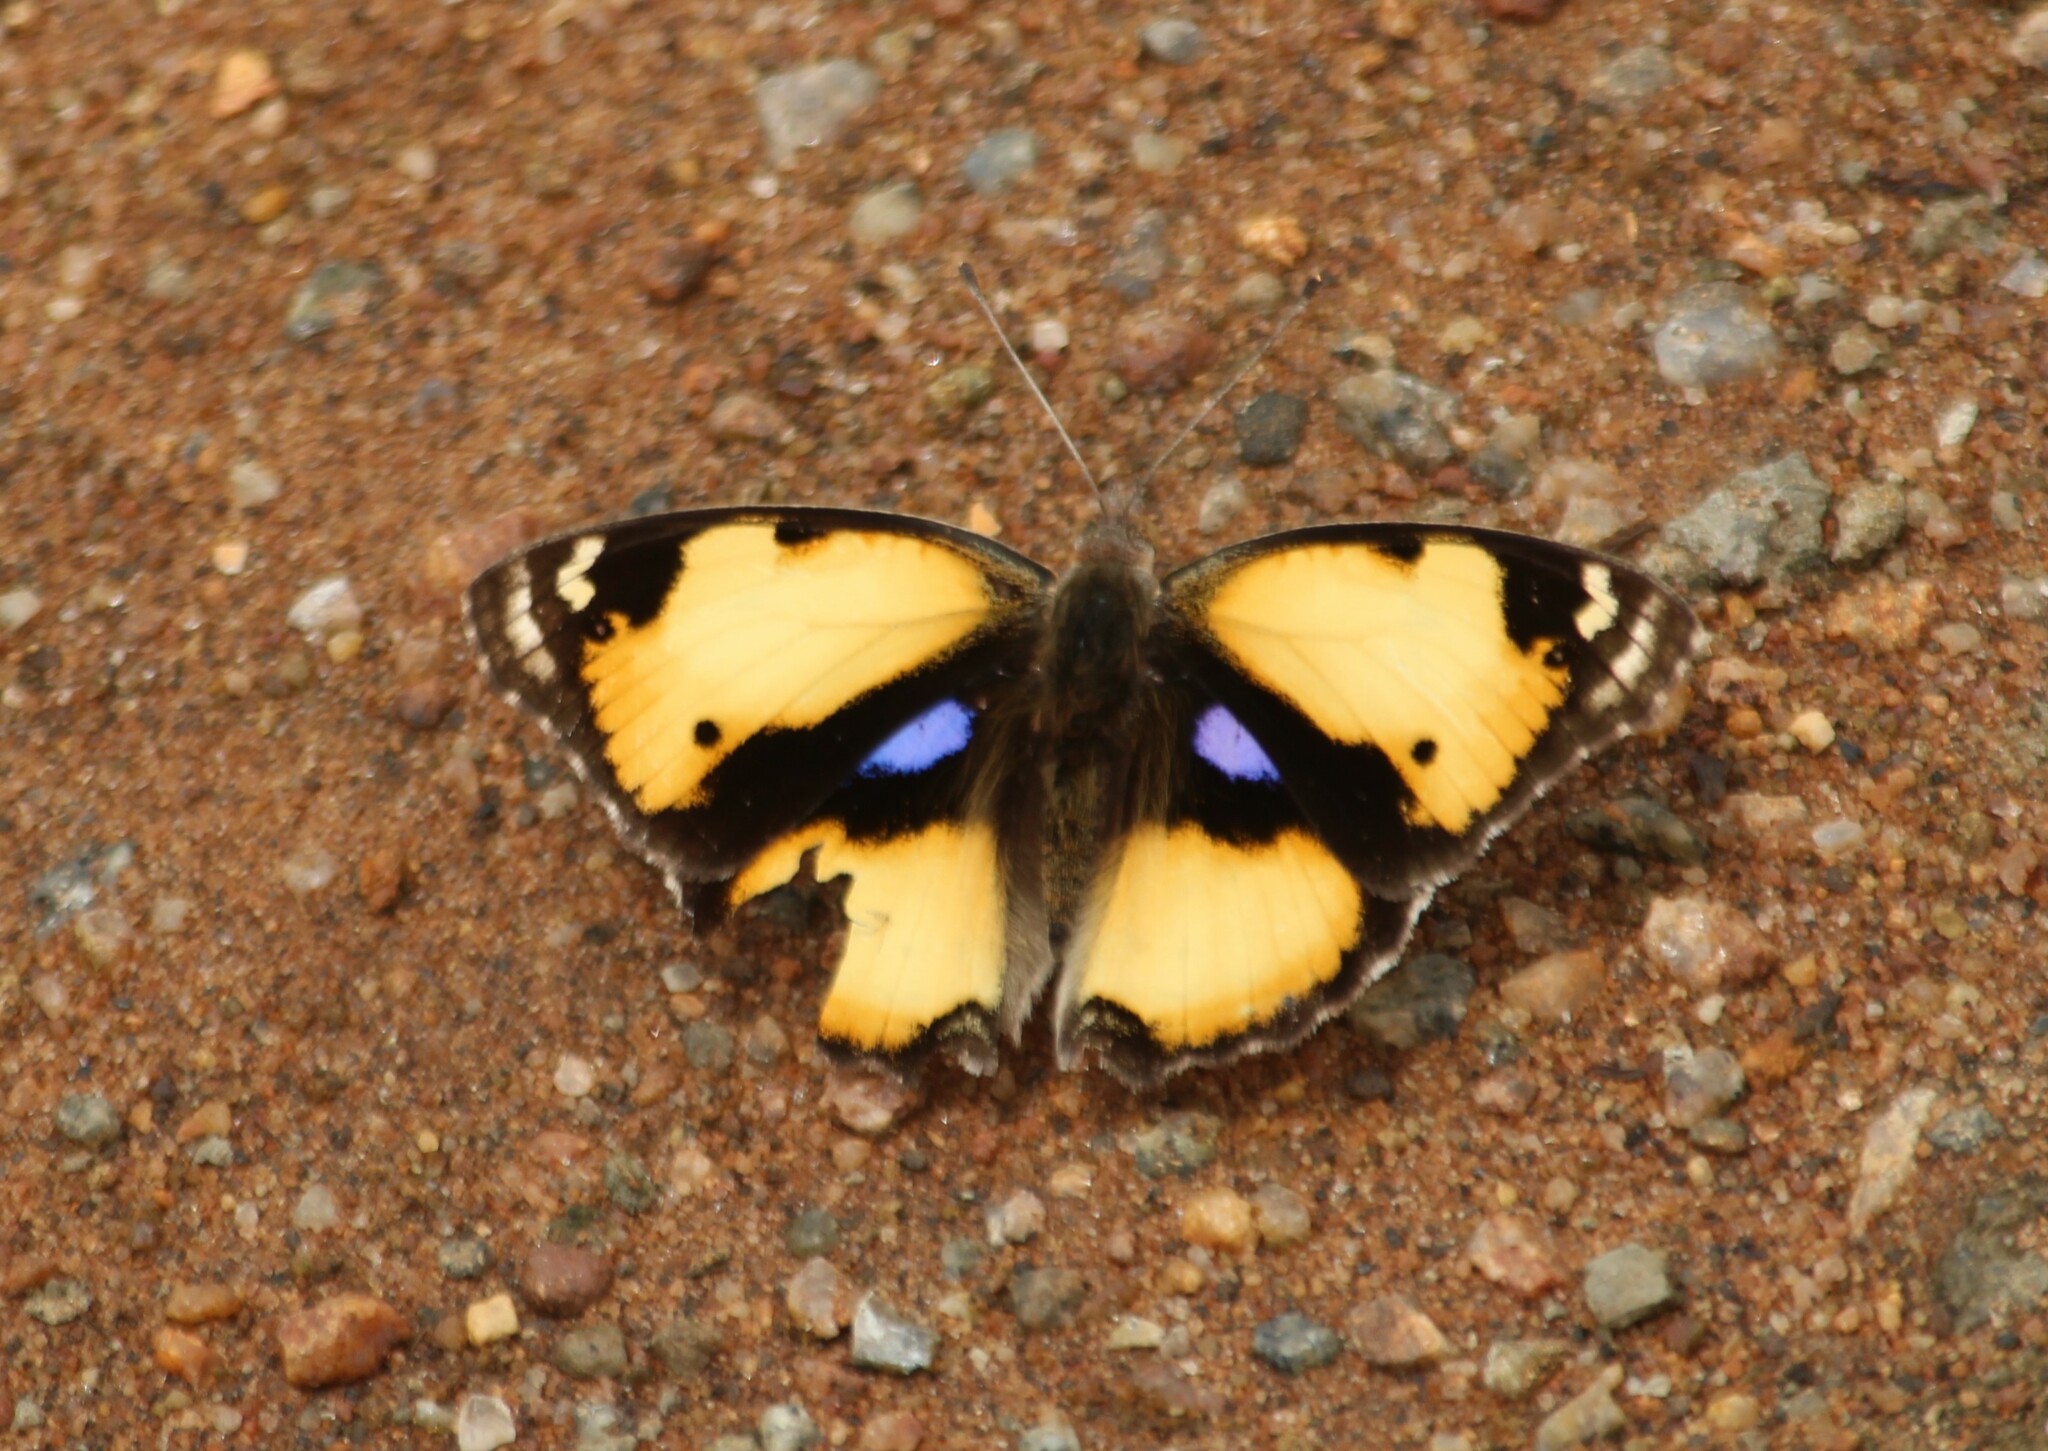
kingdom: Animalia
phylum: Arthropoda
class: Insecta
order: Lepidoptera
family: Nymphalidae
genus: Junonia
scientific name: Junonia hierta
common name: Yellow pansy
